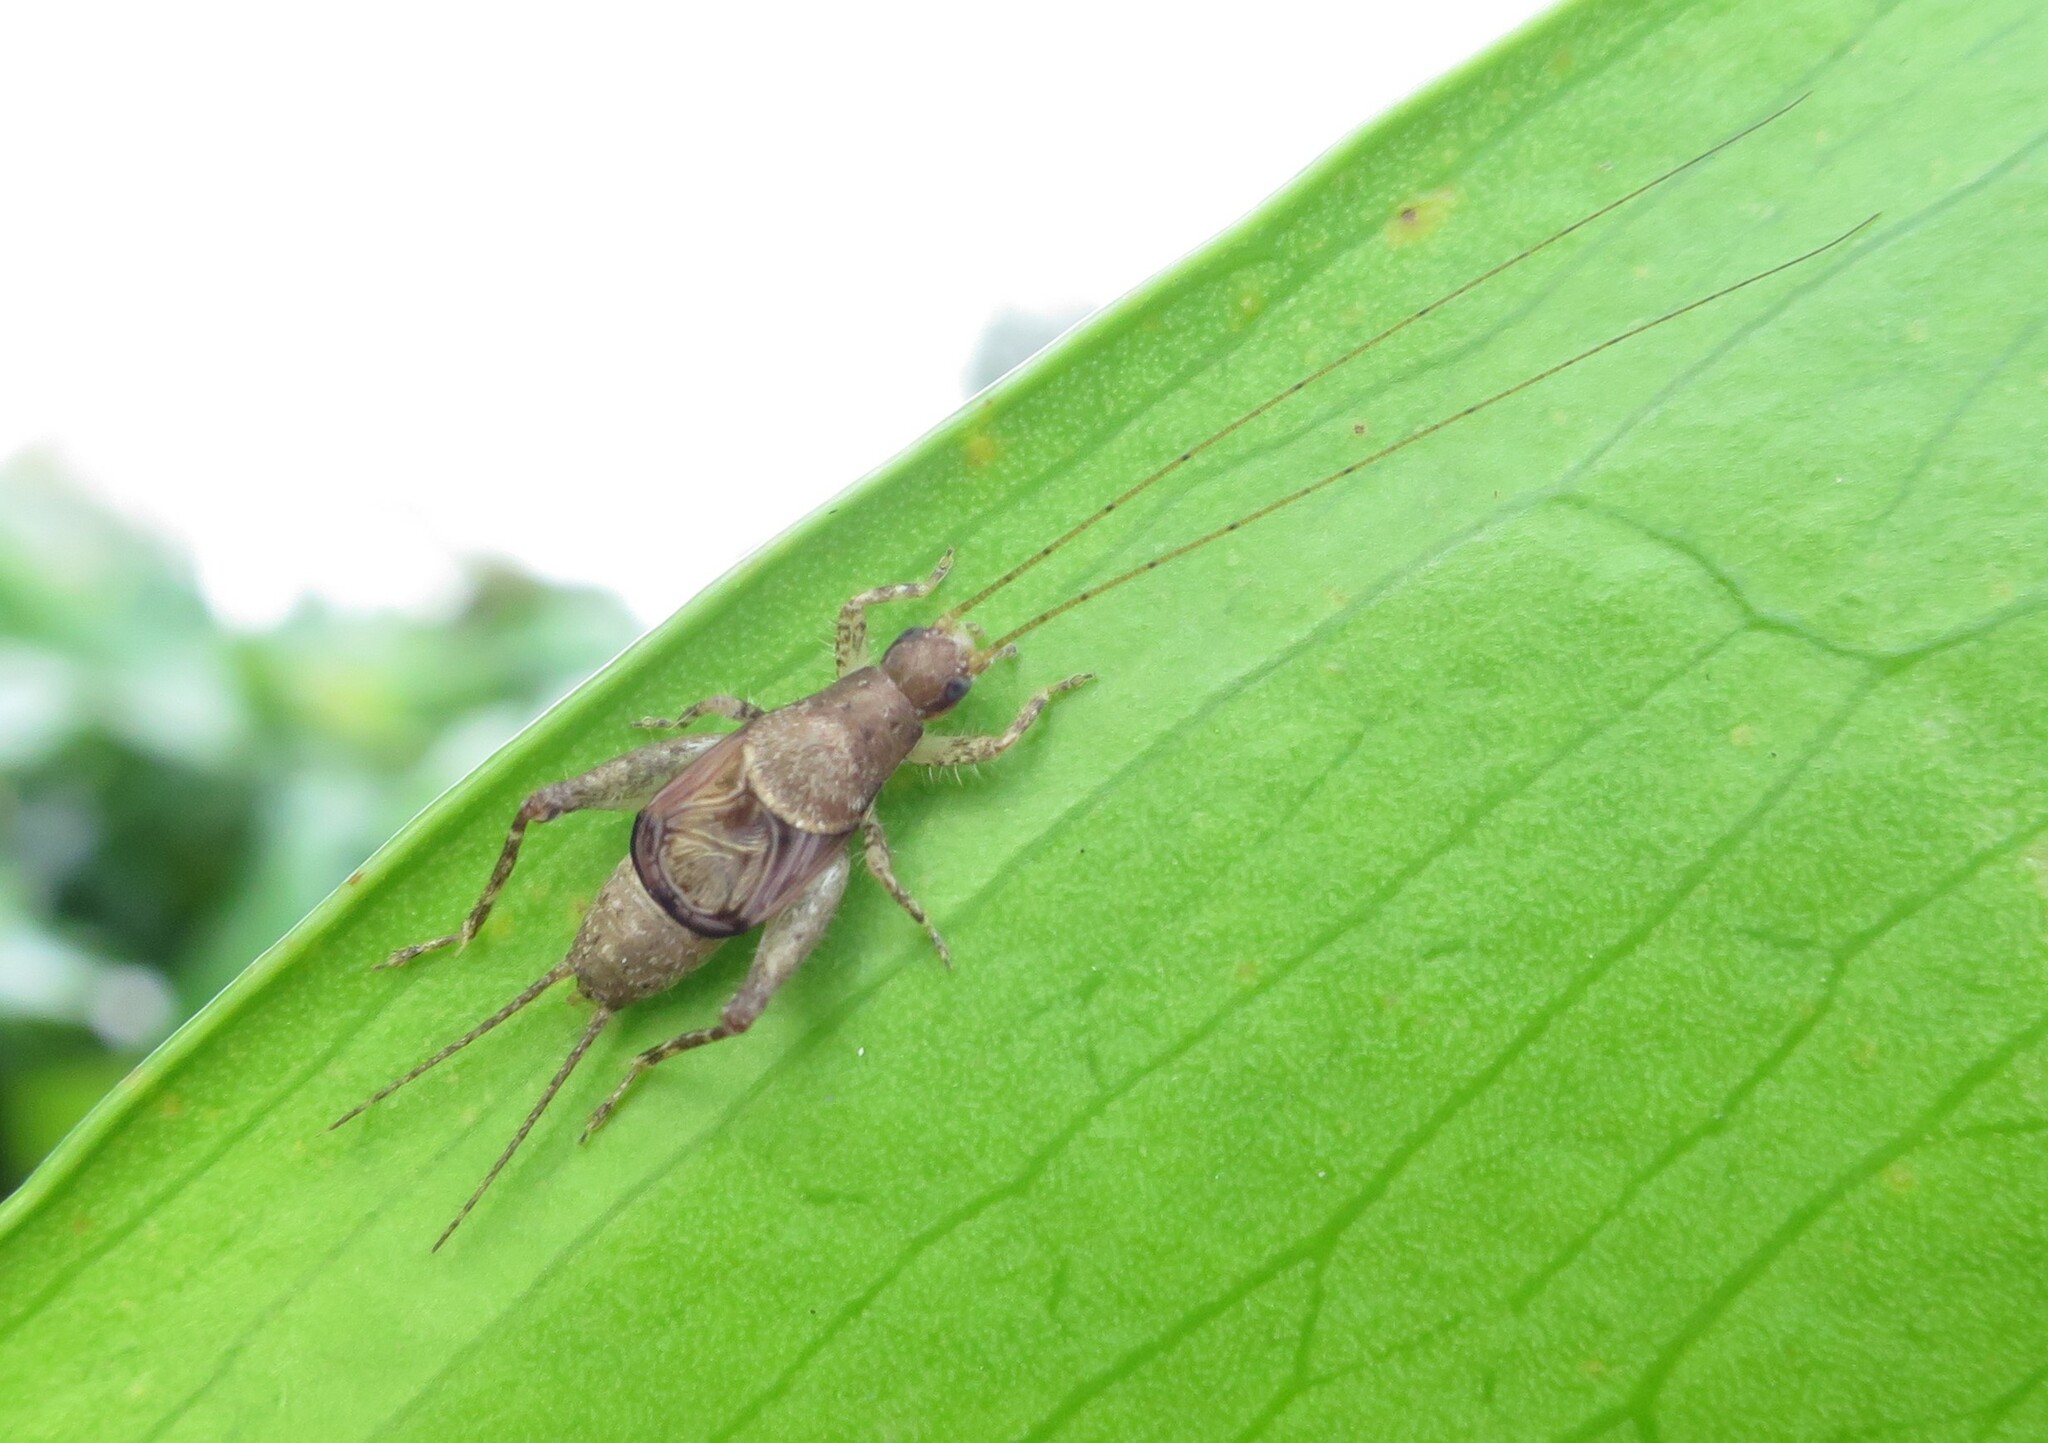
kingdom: Animalia
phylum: Arthropoda
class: Insecta
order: Orthoptera
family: Mogoplistidae
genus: Ornebius
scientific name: Ornebius aperta
